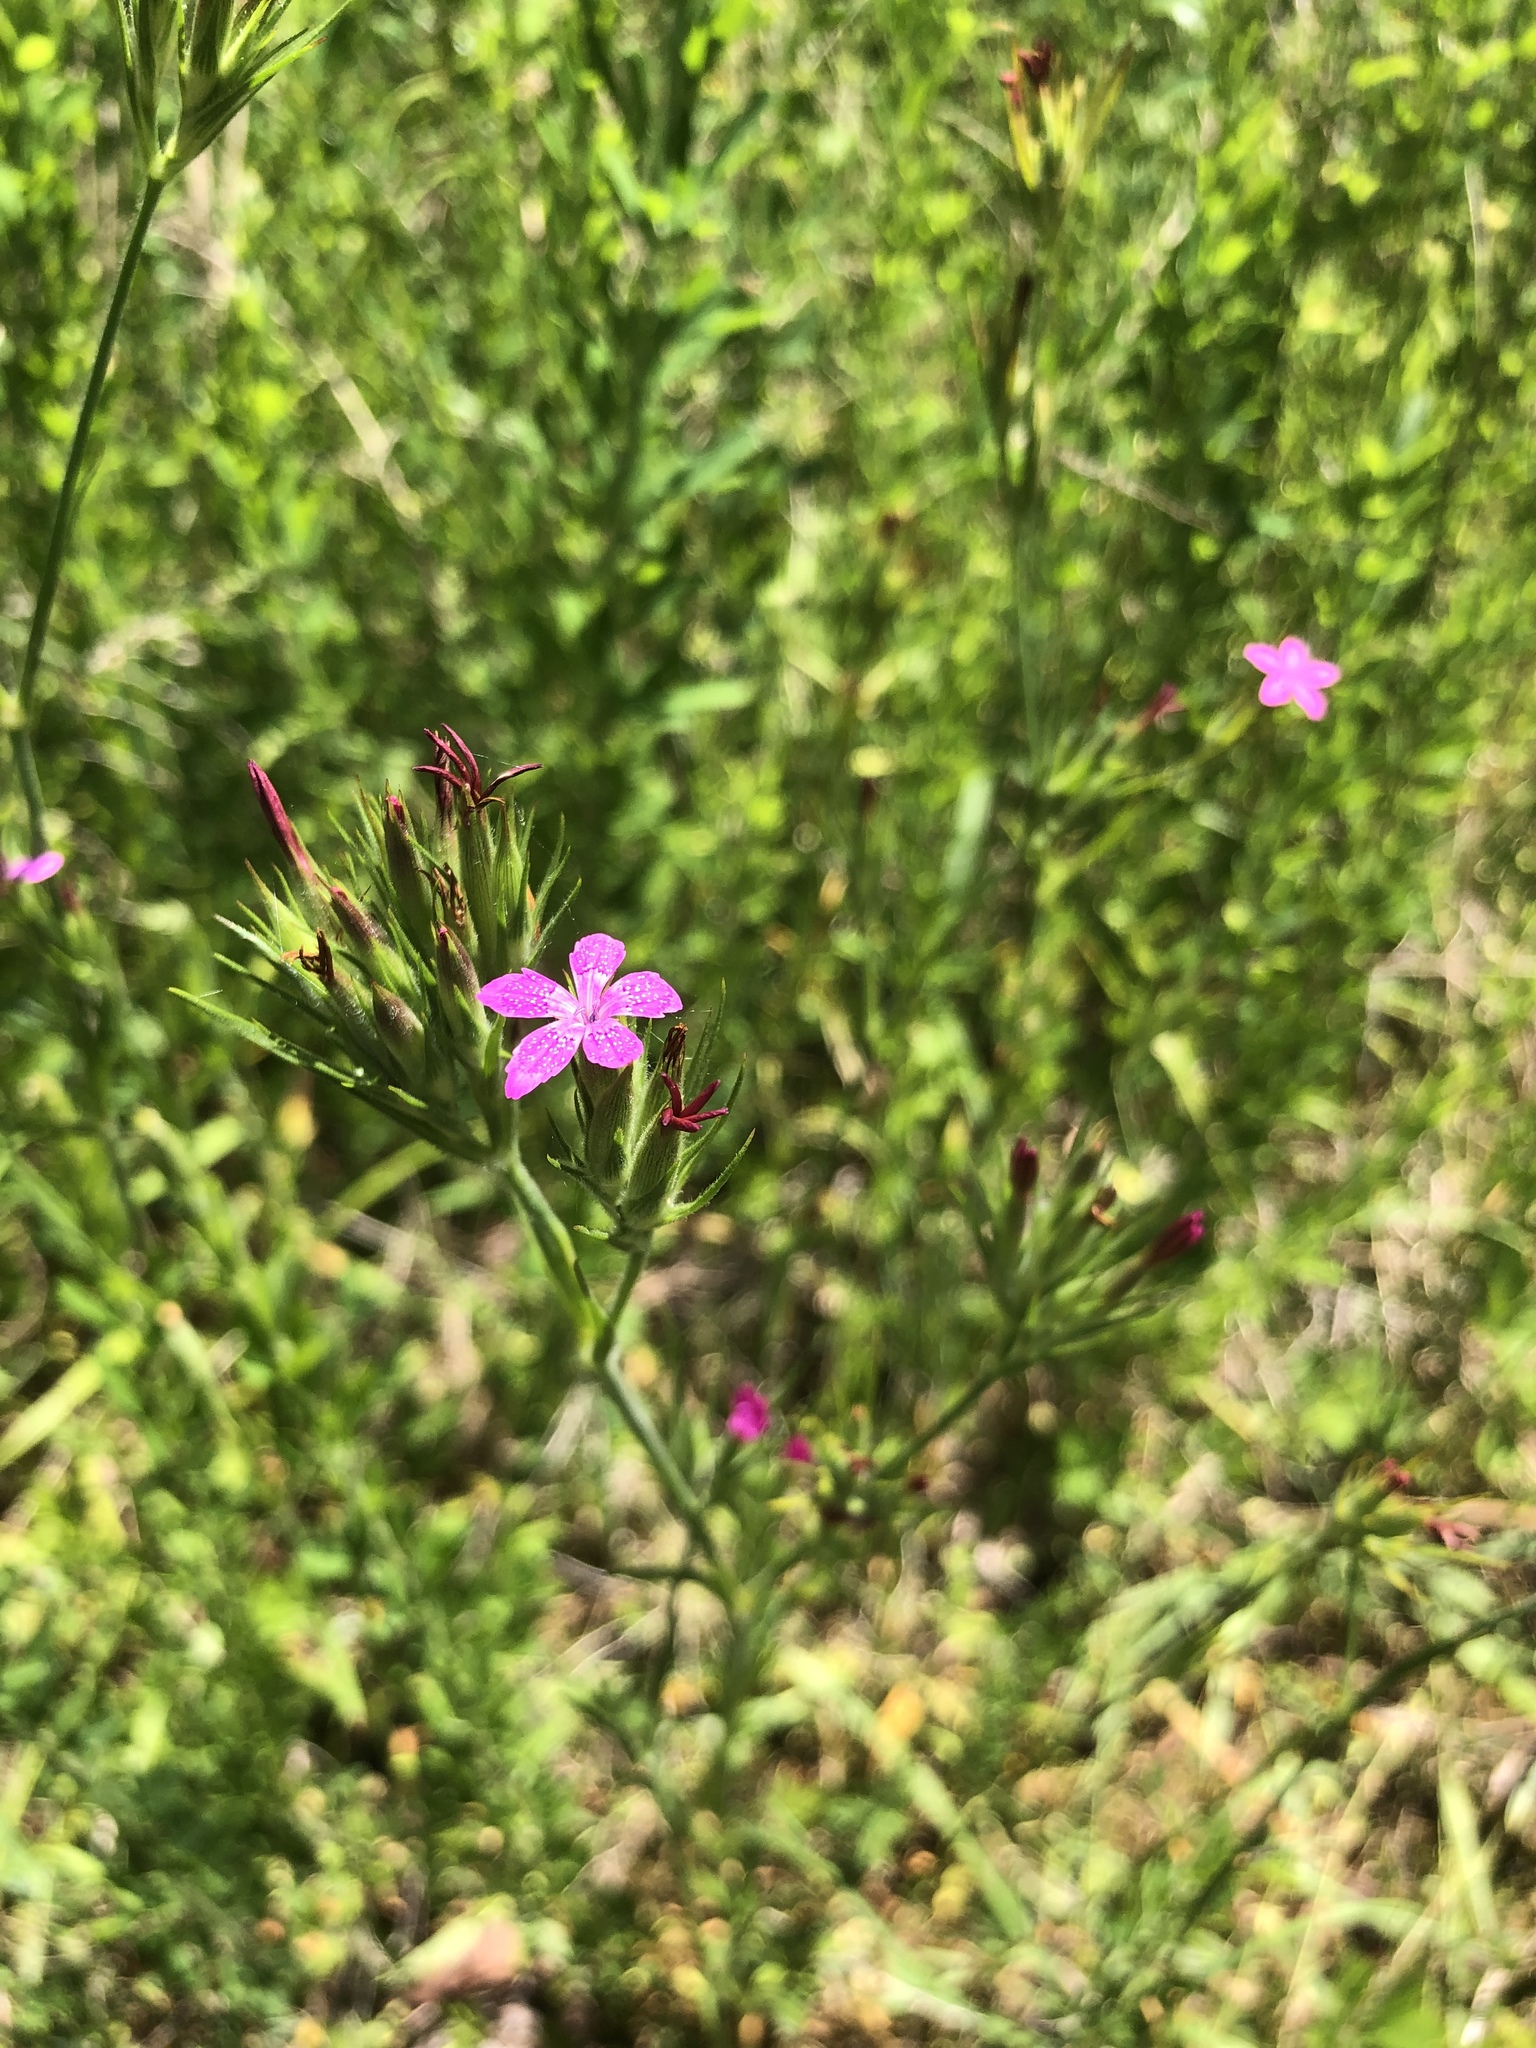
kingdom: Plantae
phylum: Tracheophyta
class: Magnoliopsida
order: Caryophyllales
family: Caryophyllaceae
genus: Dianthus
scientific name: Dianthus armeria
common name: Deptford pink
